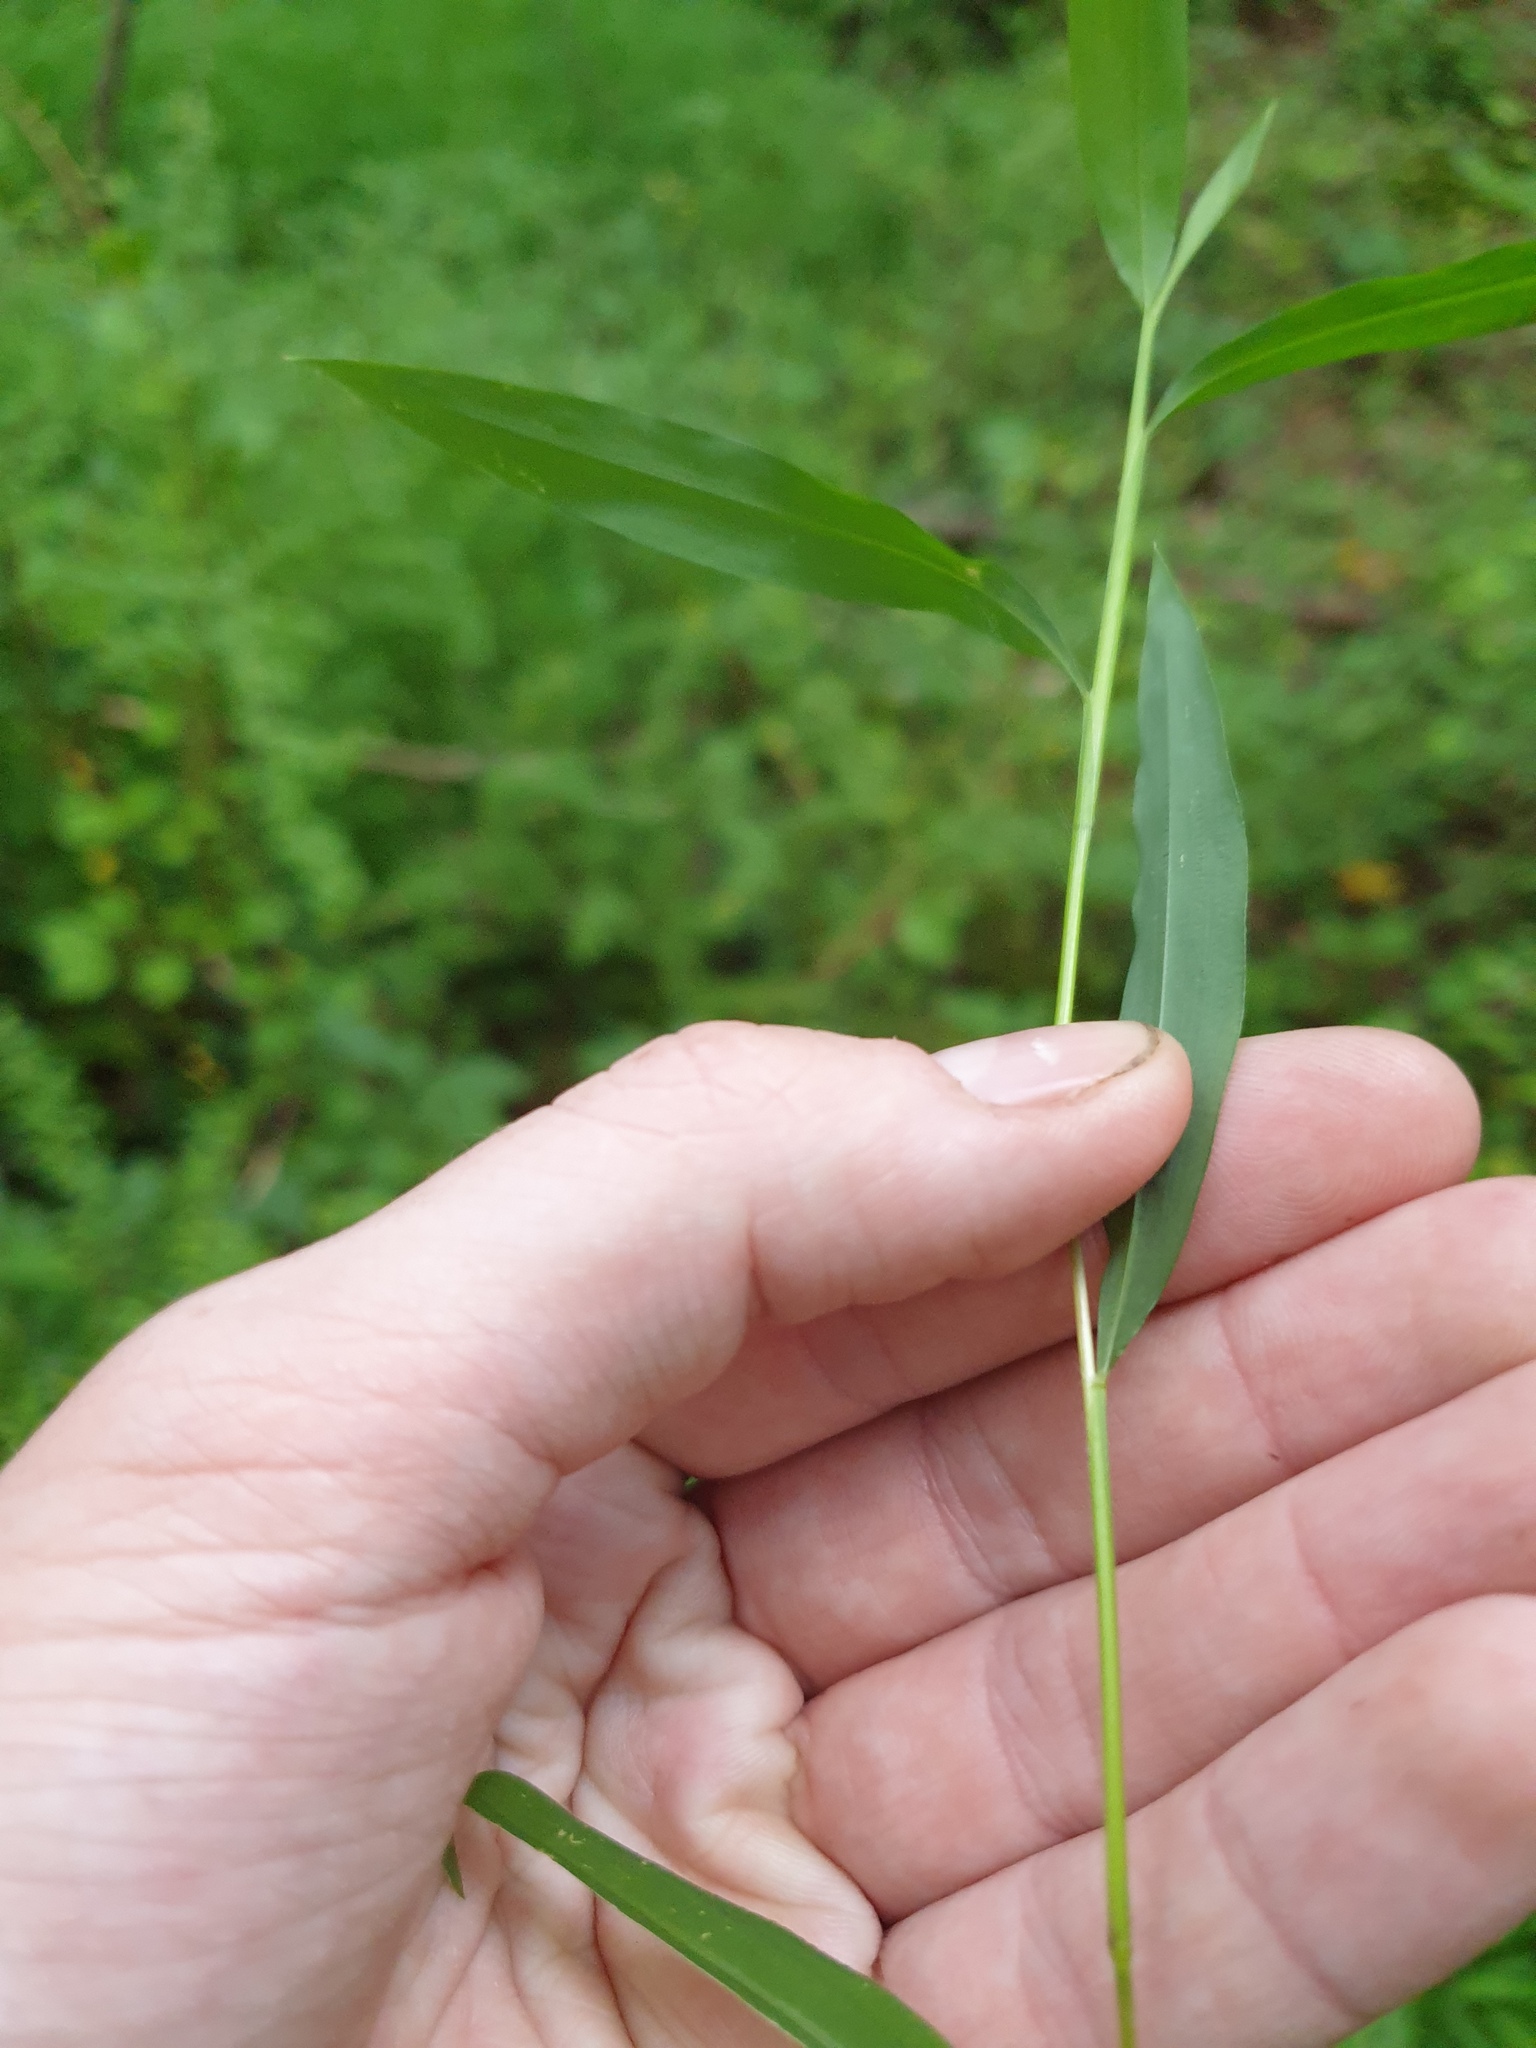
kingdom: Plantae
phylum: Tracheophyta
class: Liliopsida
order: Poales
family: Poaceae
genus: Microstegium
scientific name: Microstegium vimineum
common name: Japanese stiltgrass
